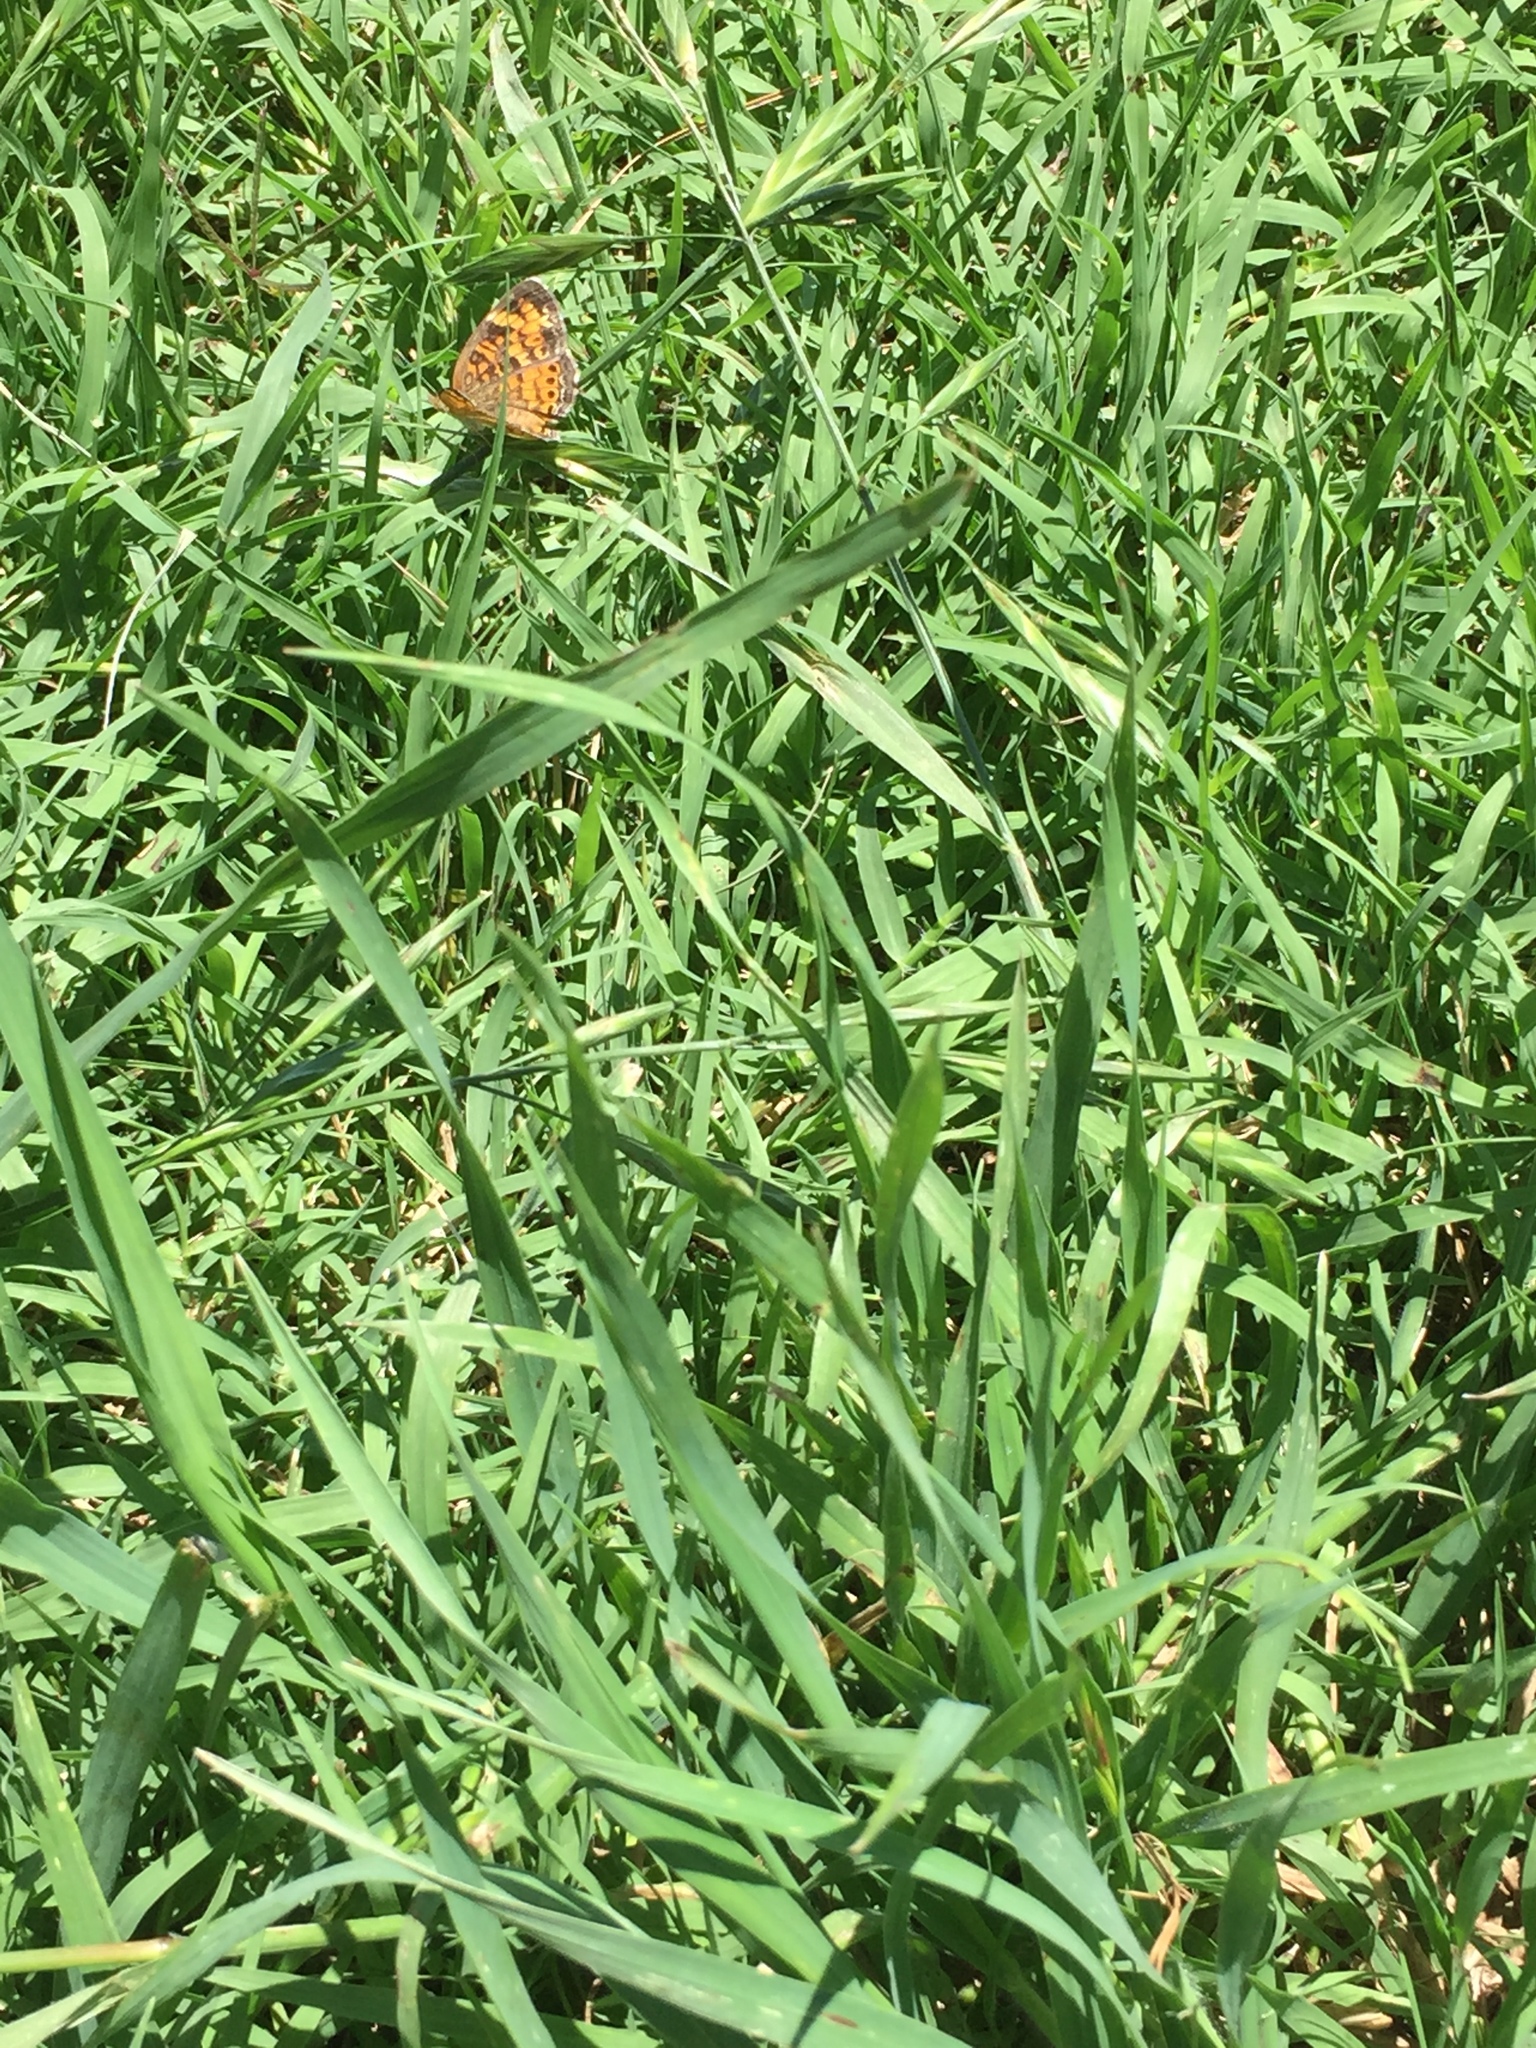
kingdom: Animalia
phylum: Arthropoda
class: Insecta
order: Lepidoptera
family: Nymphalidae
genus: Phyciodes
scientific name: Phyciodes tharos
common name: Pearl crescent
